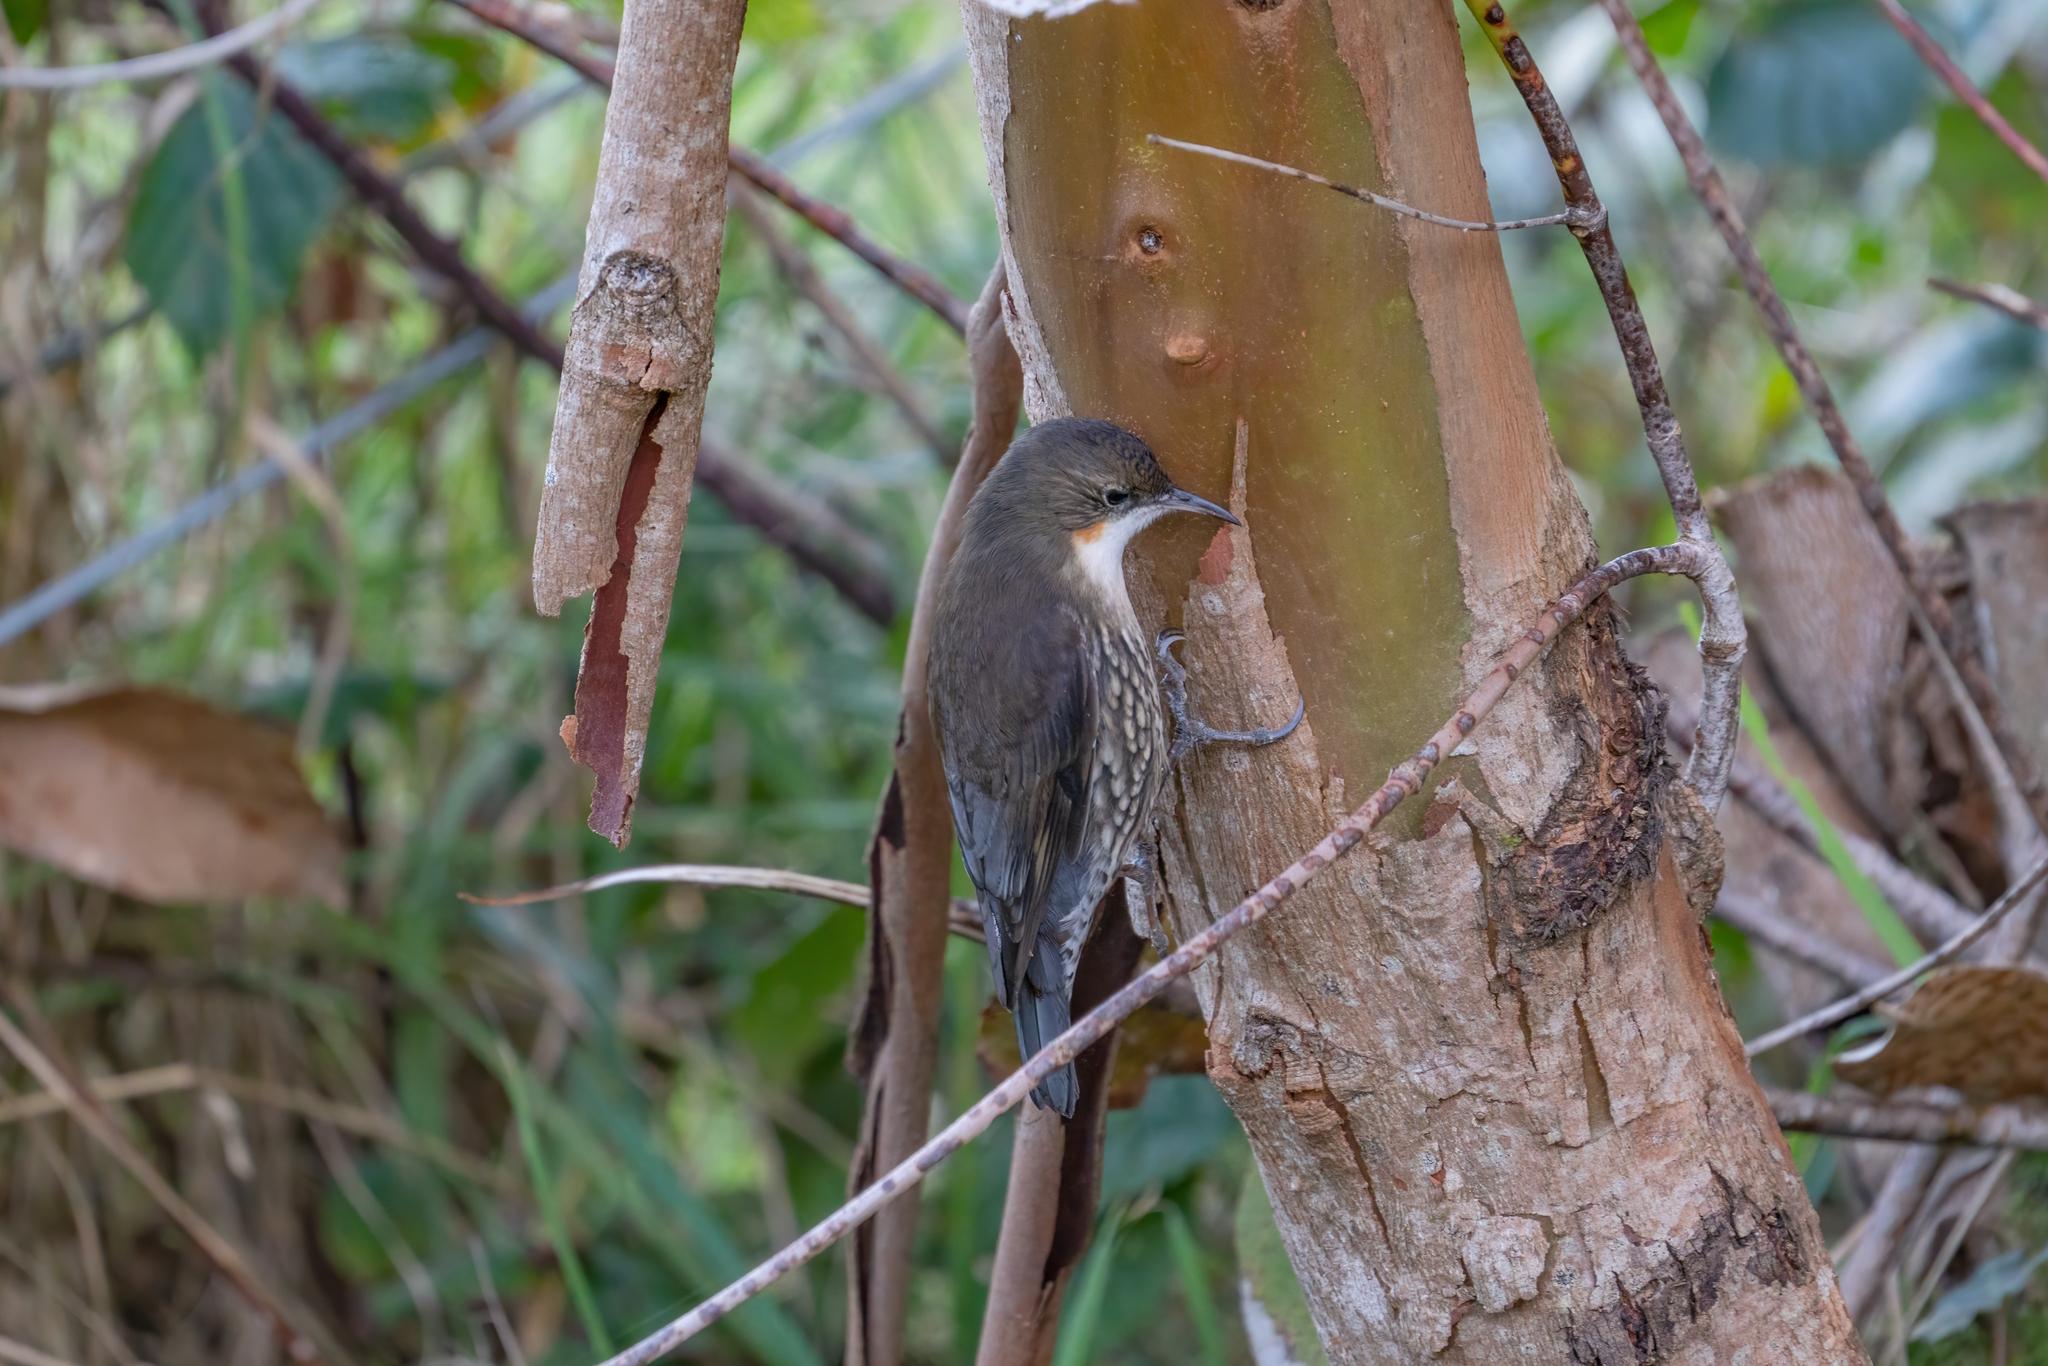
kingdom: Animalia
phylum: Chordata
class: Aves
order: Passeriformes
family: Climacteridae
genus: Cormobates
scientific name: Cormobates leucophaea
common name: White-throated treecreeper
